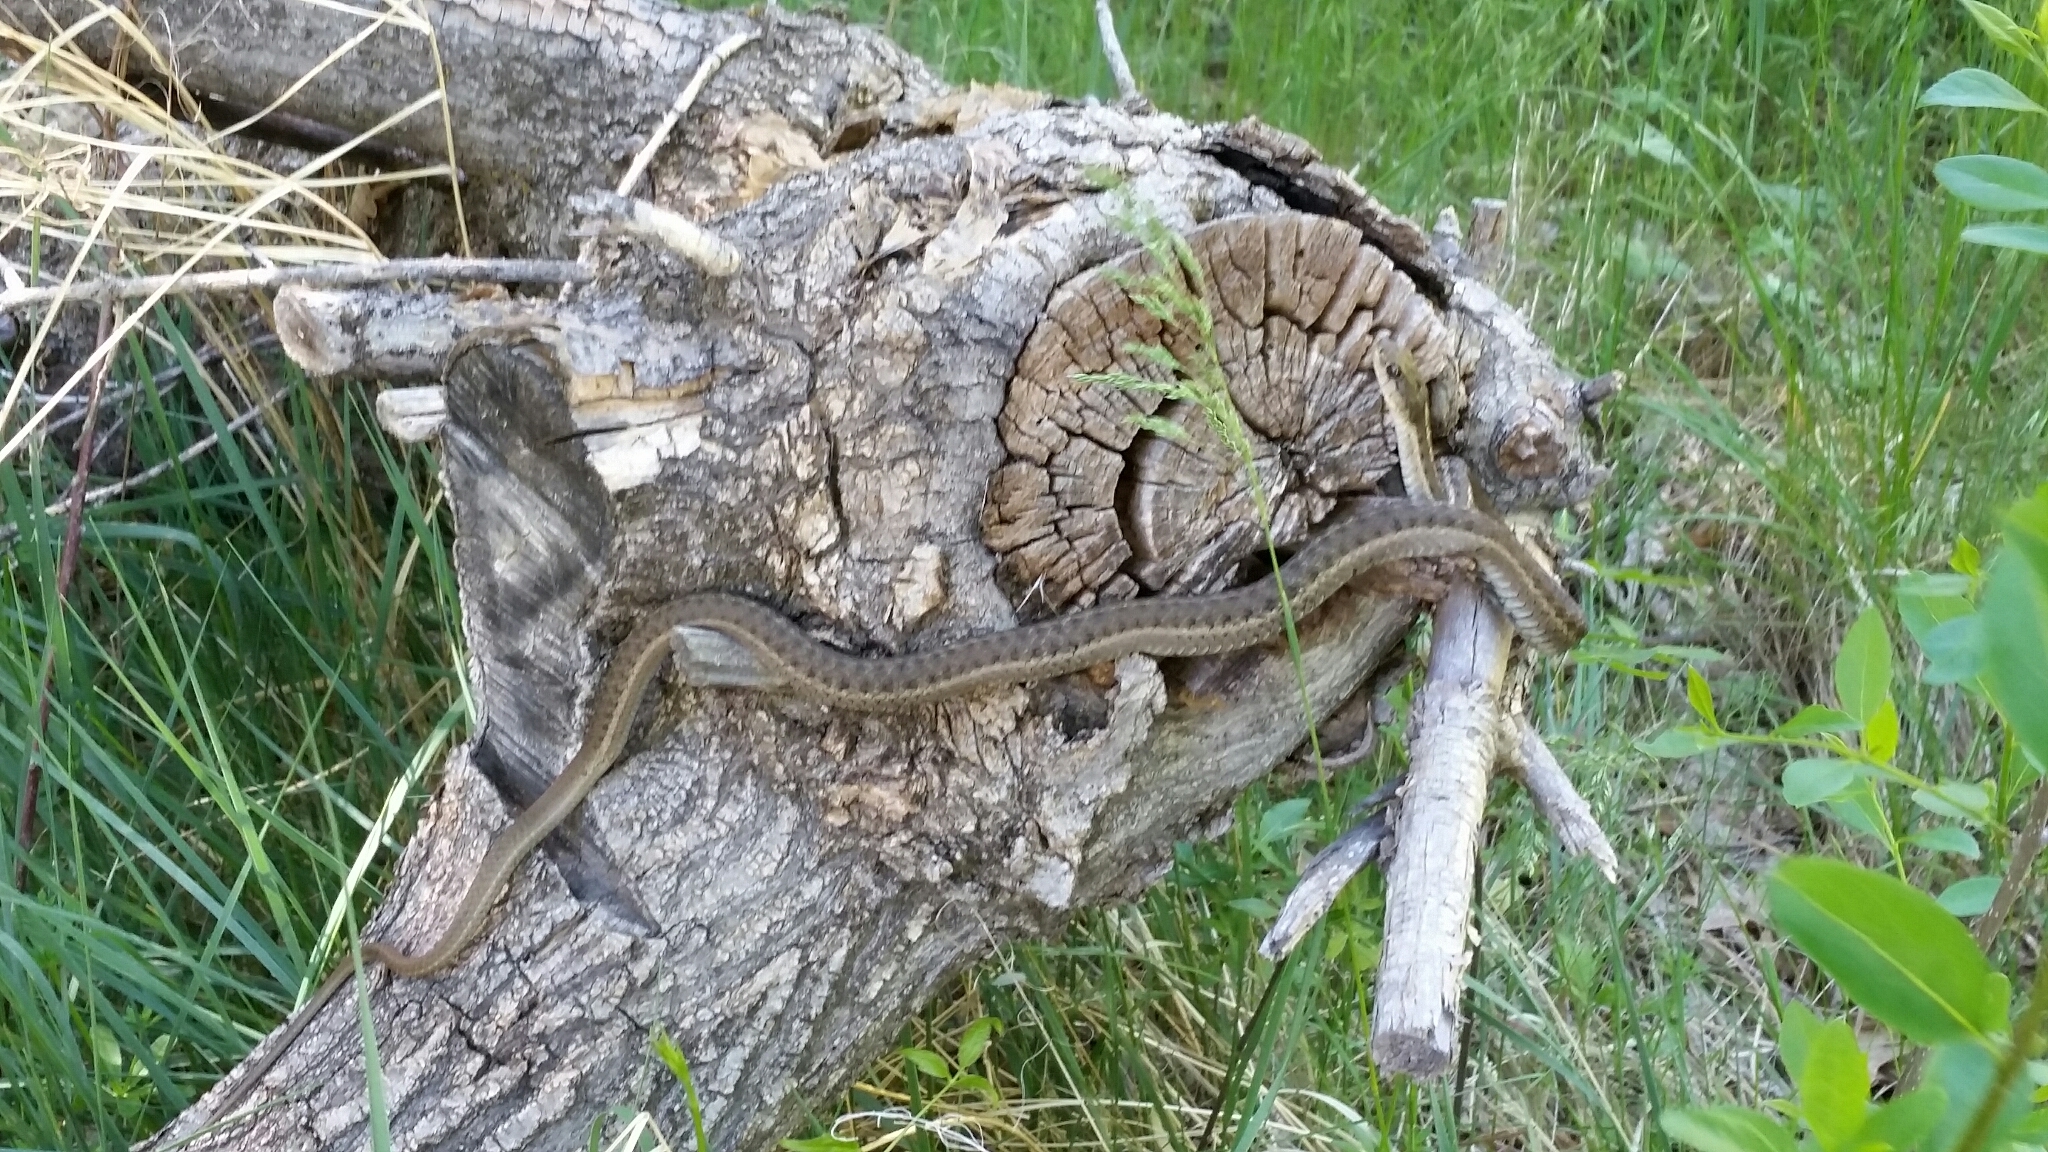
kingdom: Animalia
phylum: Chordata
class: Squamata
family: Colubridae
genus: Thamnophis
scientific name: Thamnophis elegans
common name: Western terrestrial garter snake
